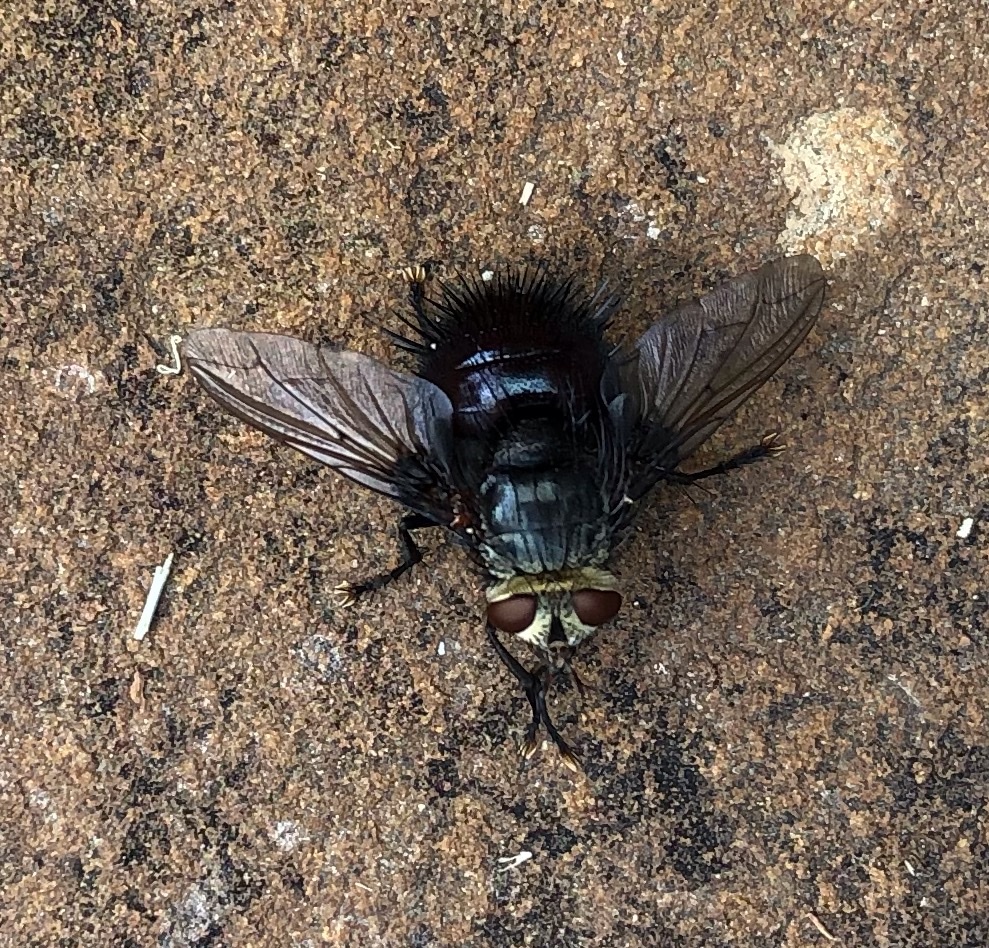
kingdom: Animalia
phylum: Arthropoda
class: Insecta
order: Diptera
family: Tachinidae
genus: Juriniopsis
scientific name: Juriniopsis adusta
